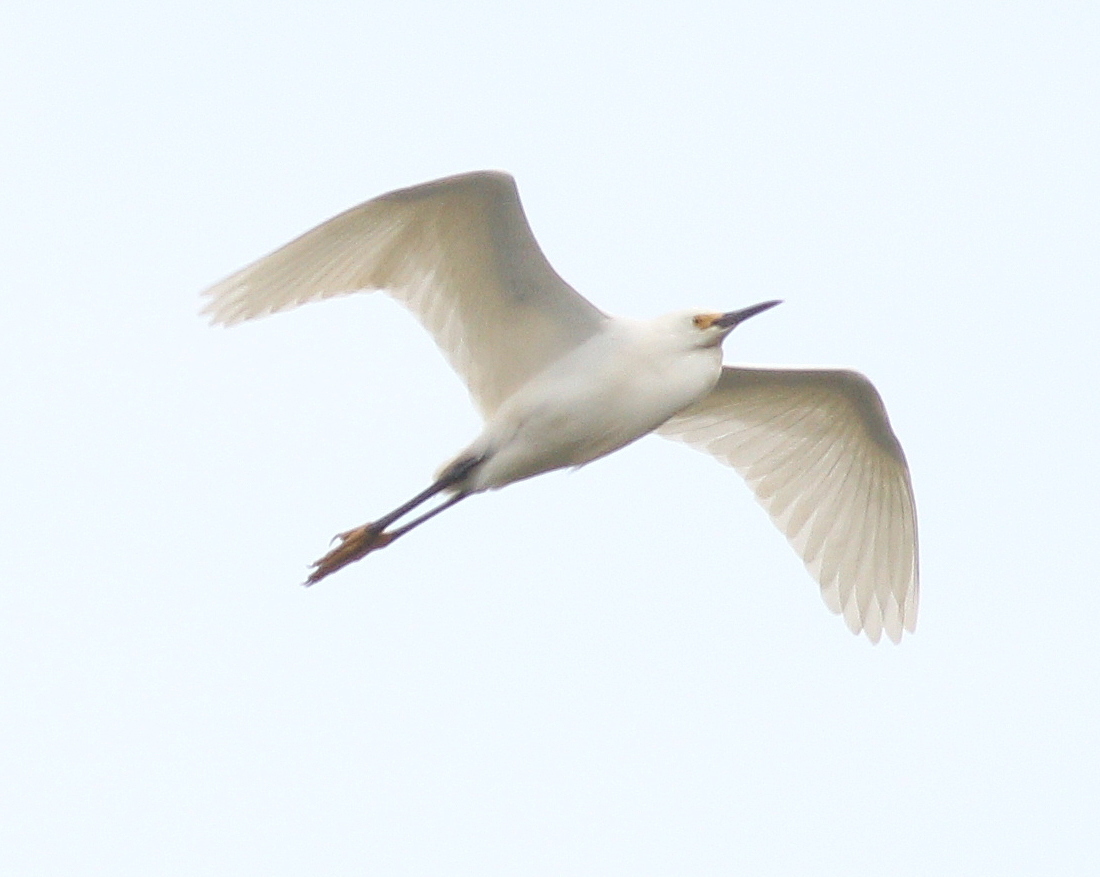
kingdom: Animalia
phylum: Chordata
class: Aves
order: Pelecaniformes
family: Ardeidae
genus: Egretta
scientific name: Egretta thula
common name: Snowy egret
